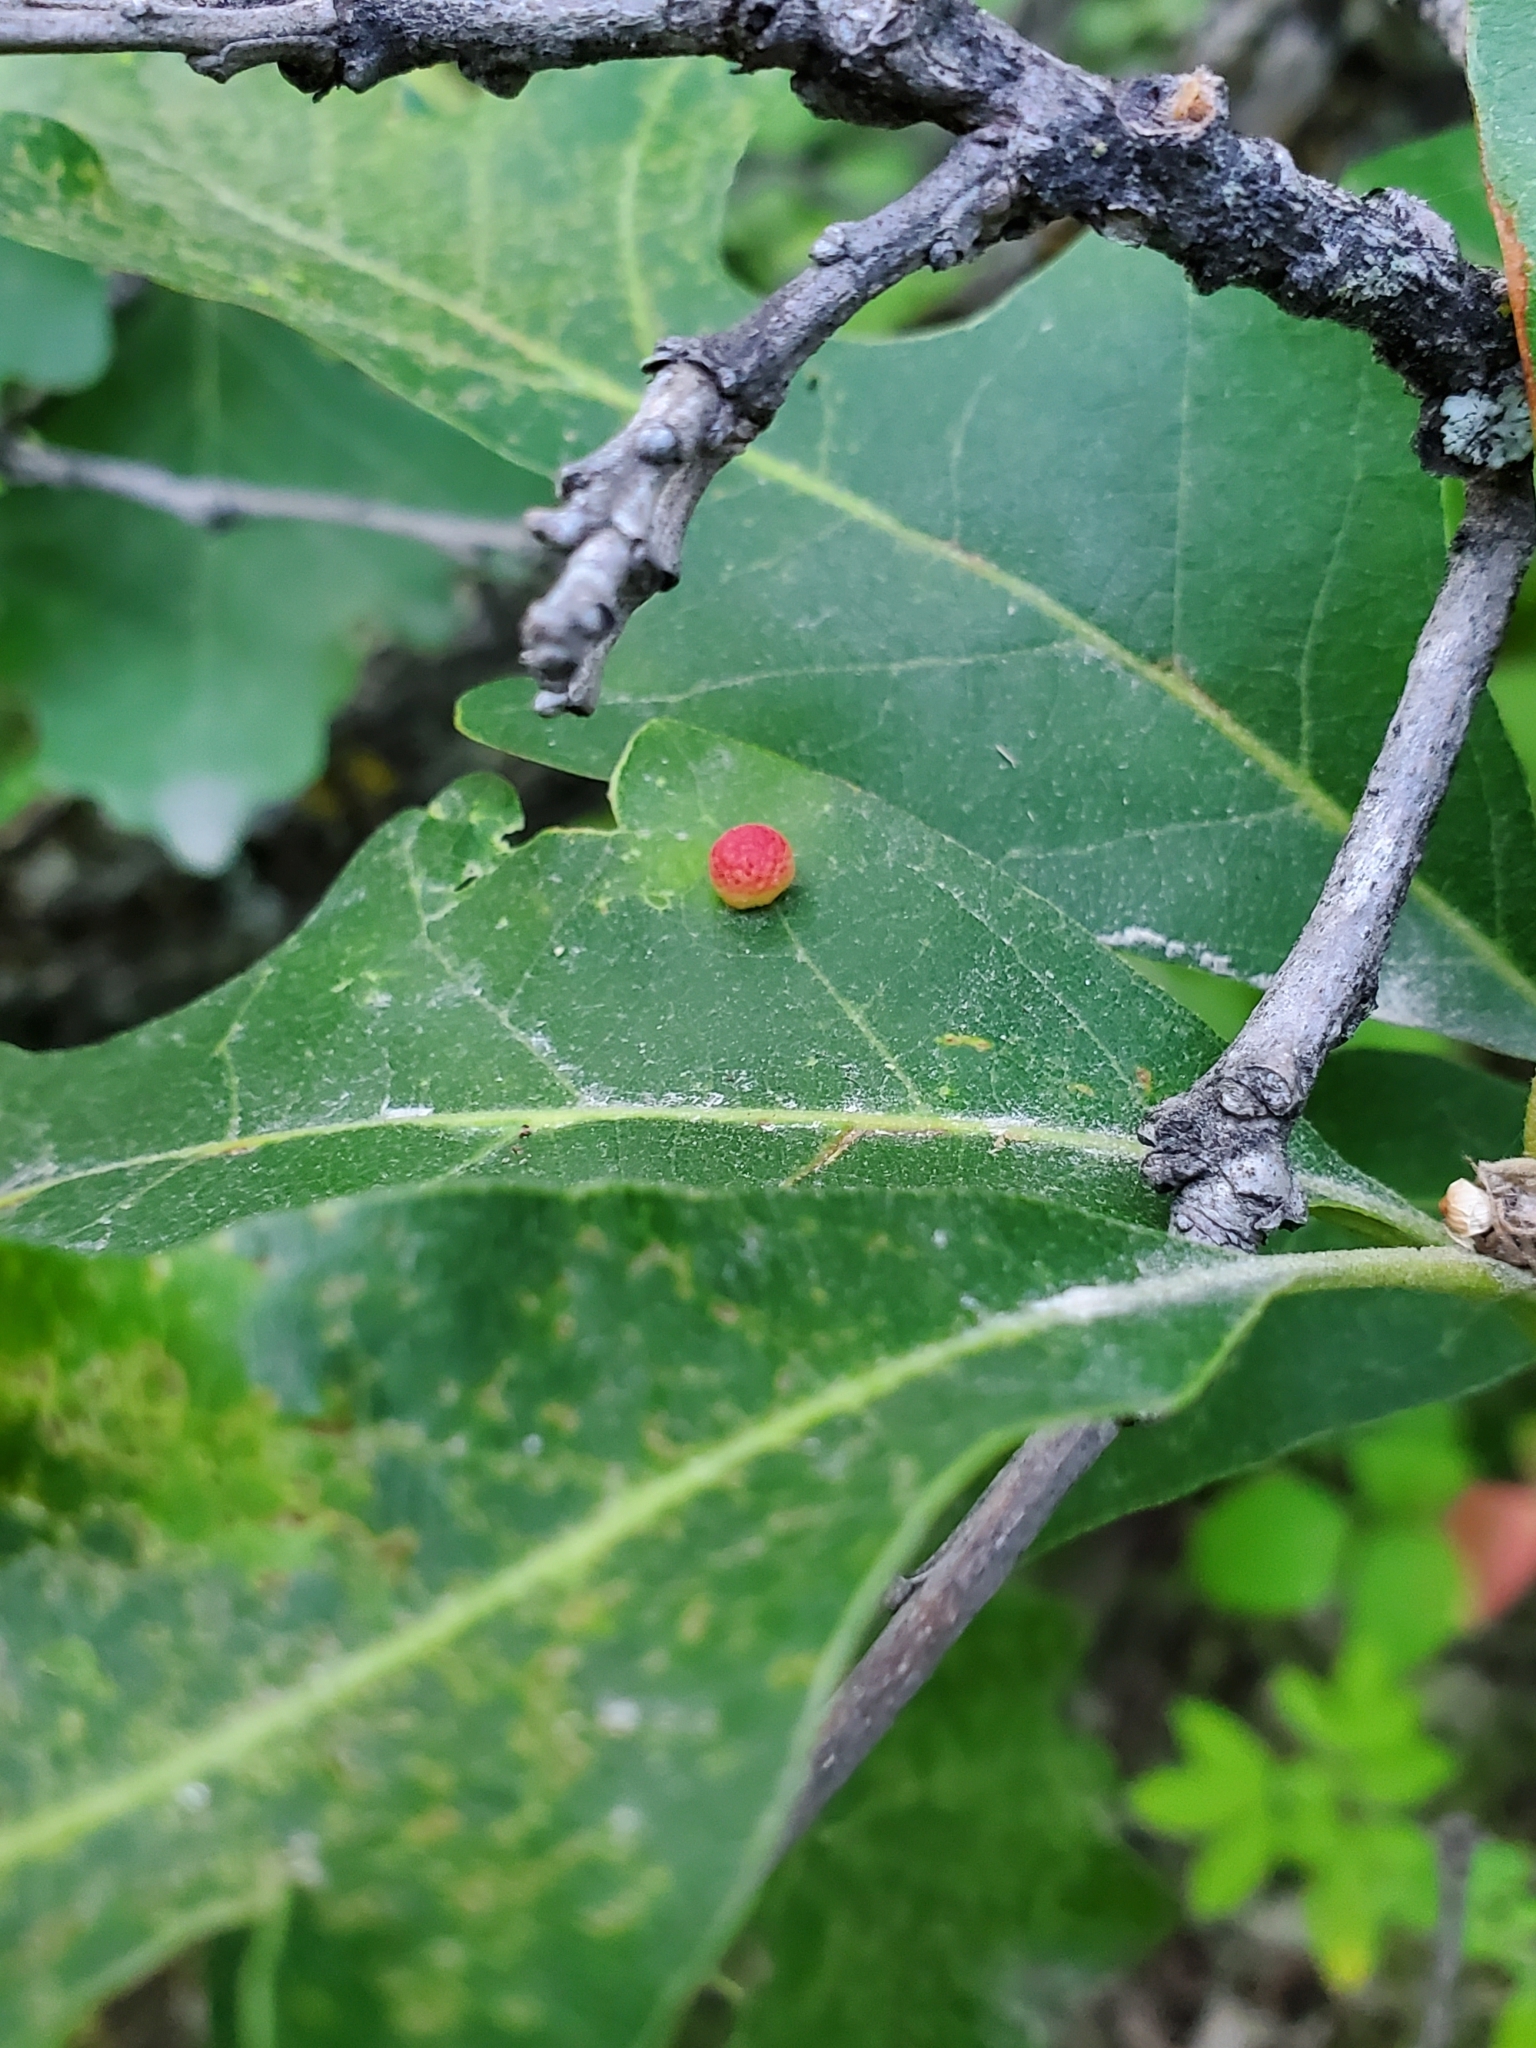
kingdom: Animalia
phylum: Arthropoda
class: Insecta
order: Hymenoptera
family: Cynipidae
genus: Acraspis
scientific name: Acraspis quercushirta
